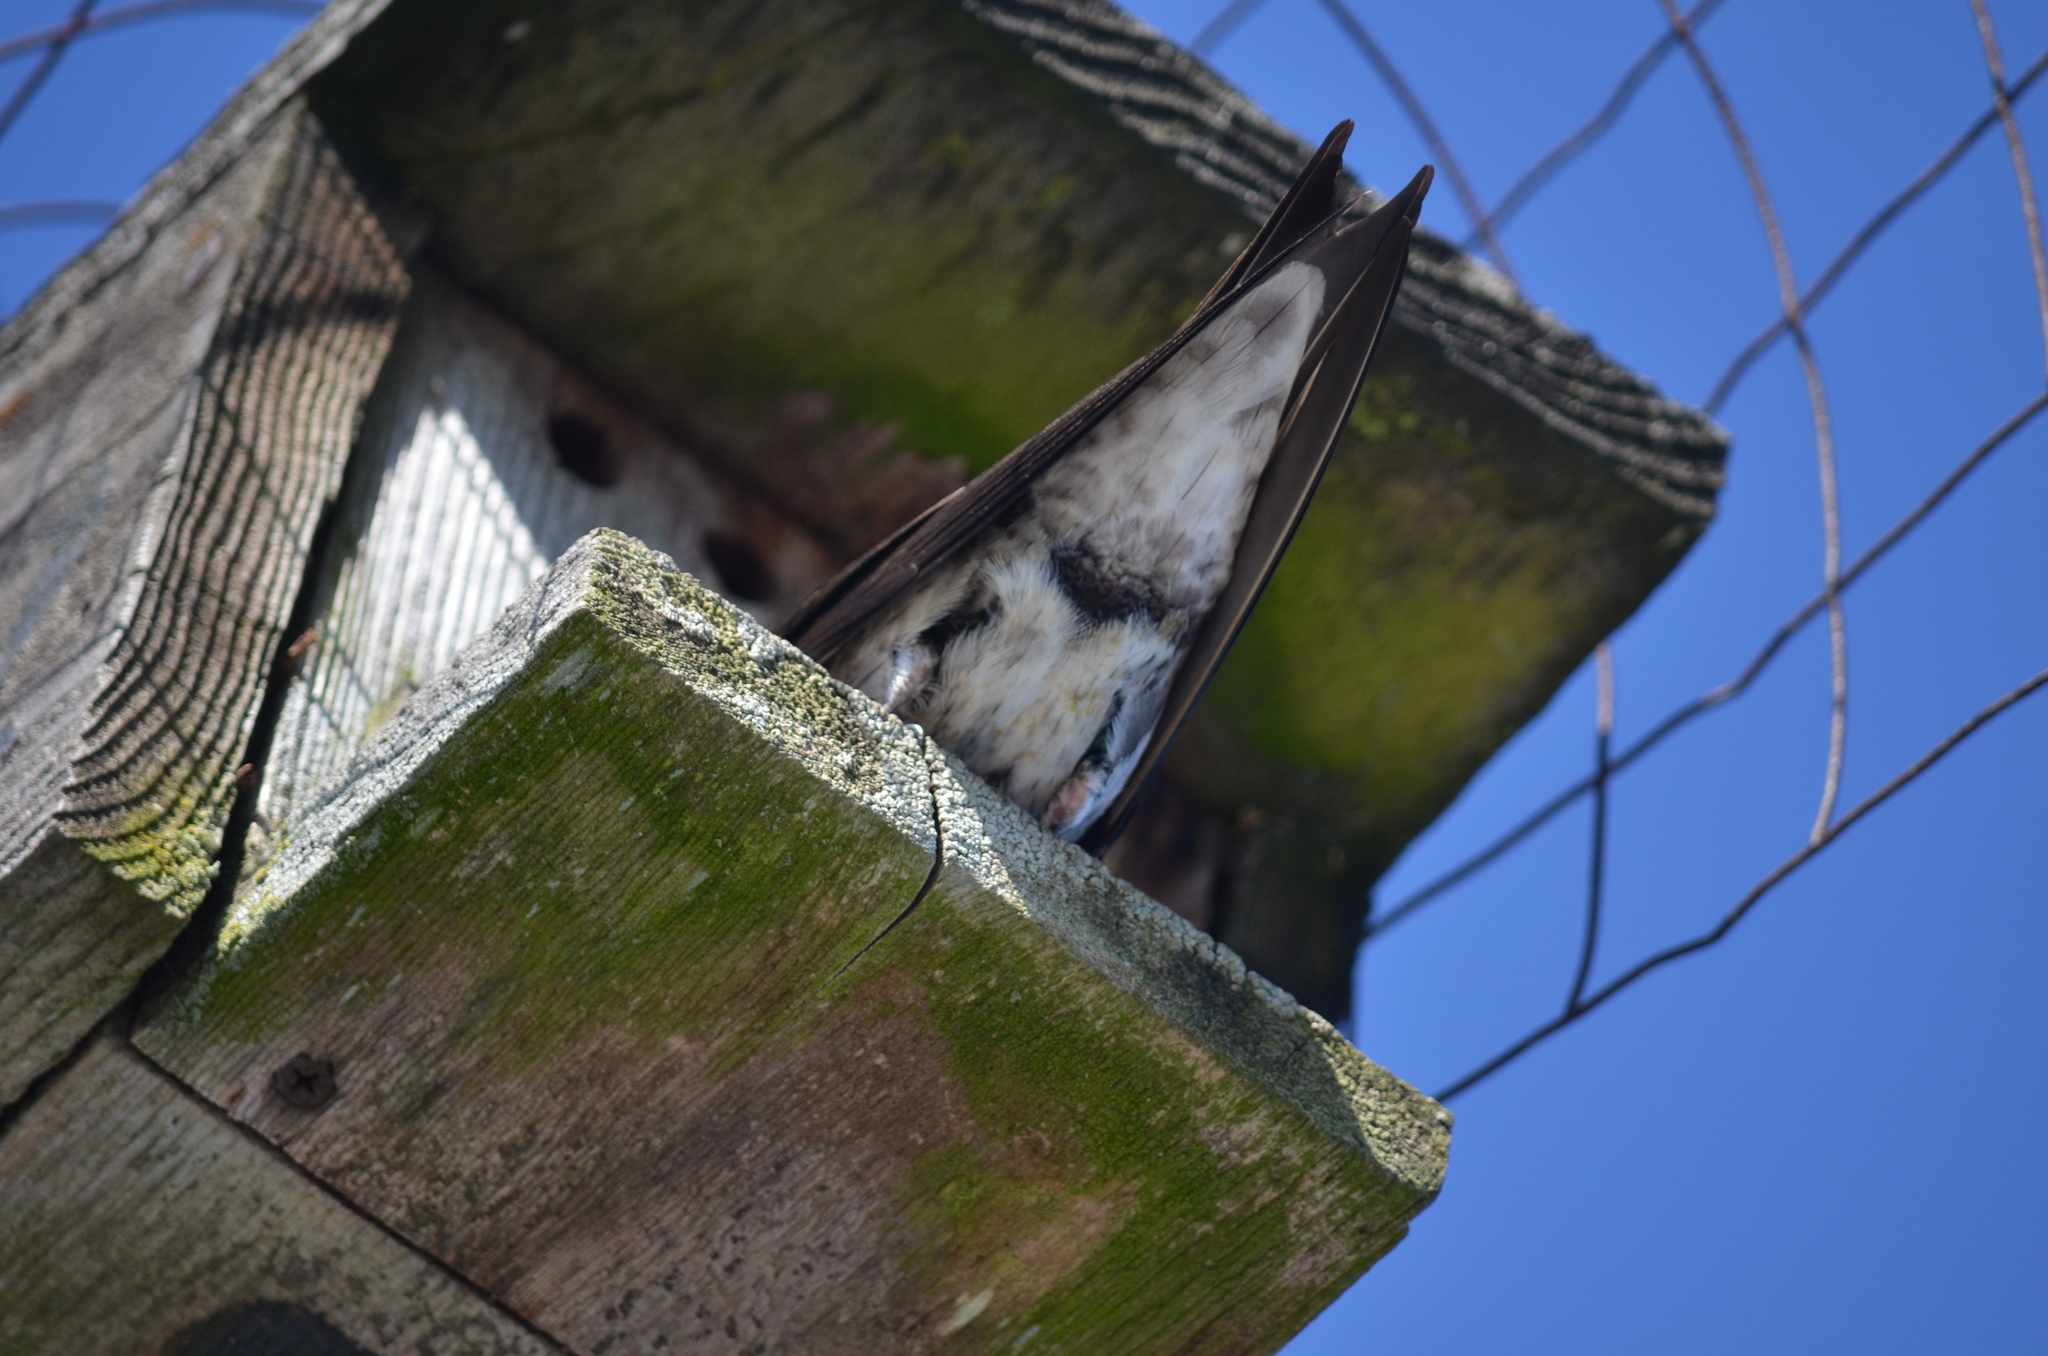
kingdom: Animalia
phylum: Chordata
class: Aves
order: Passeriformes
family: Hirundinidae
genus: Progne
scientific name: Progne subis
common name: Purple martin
